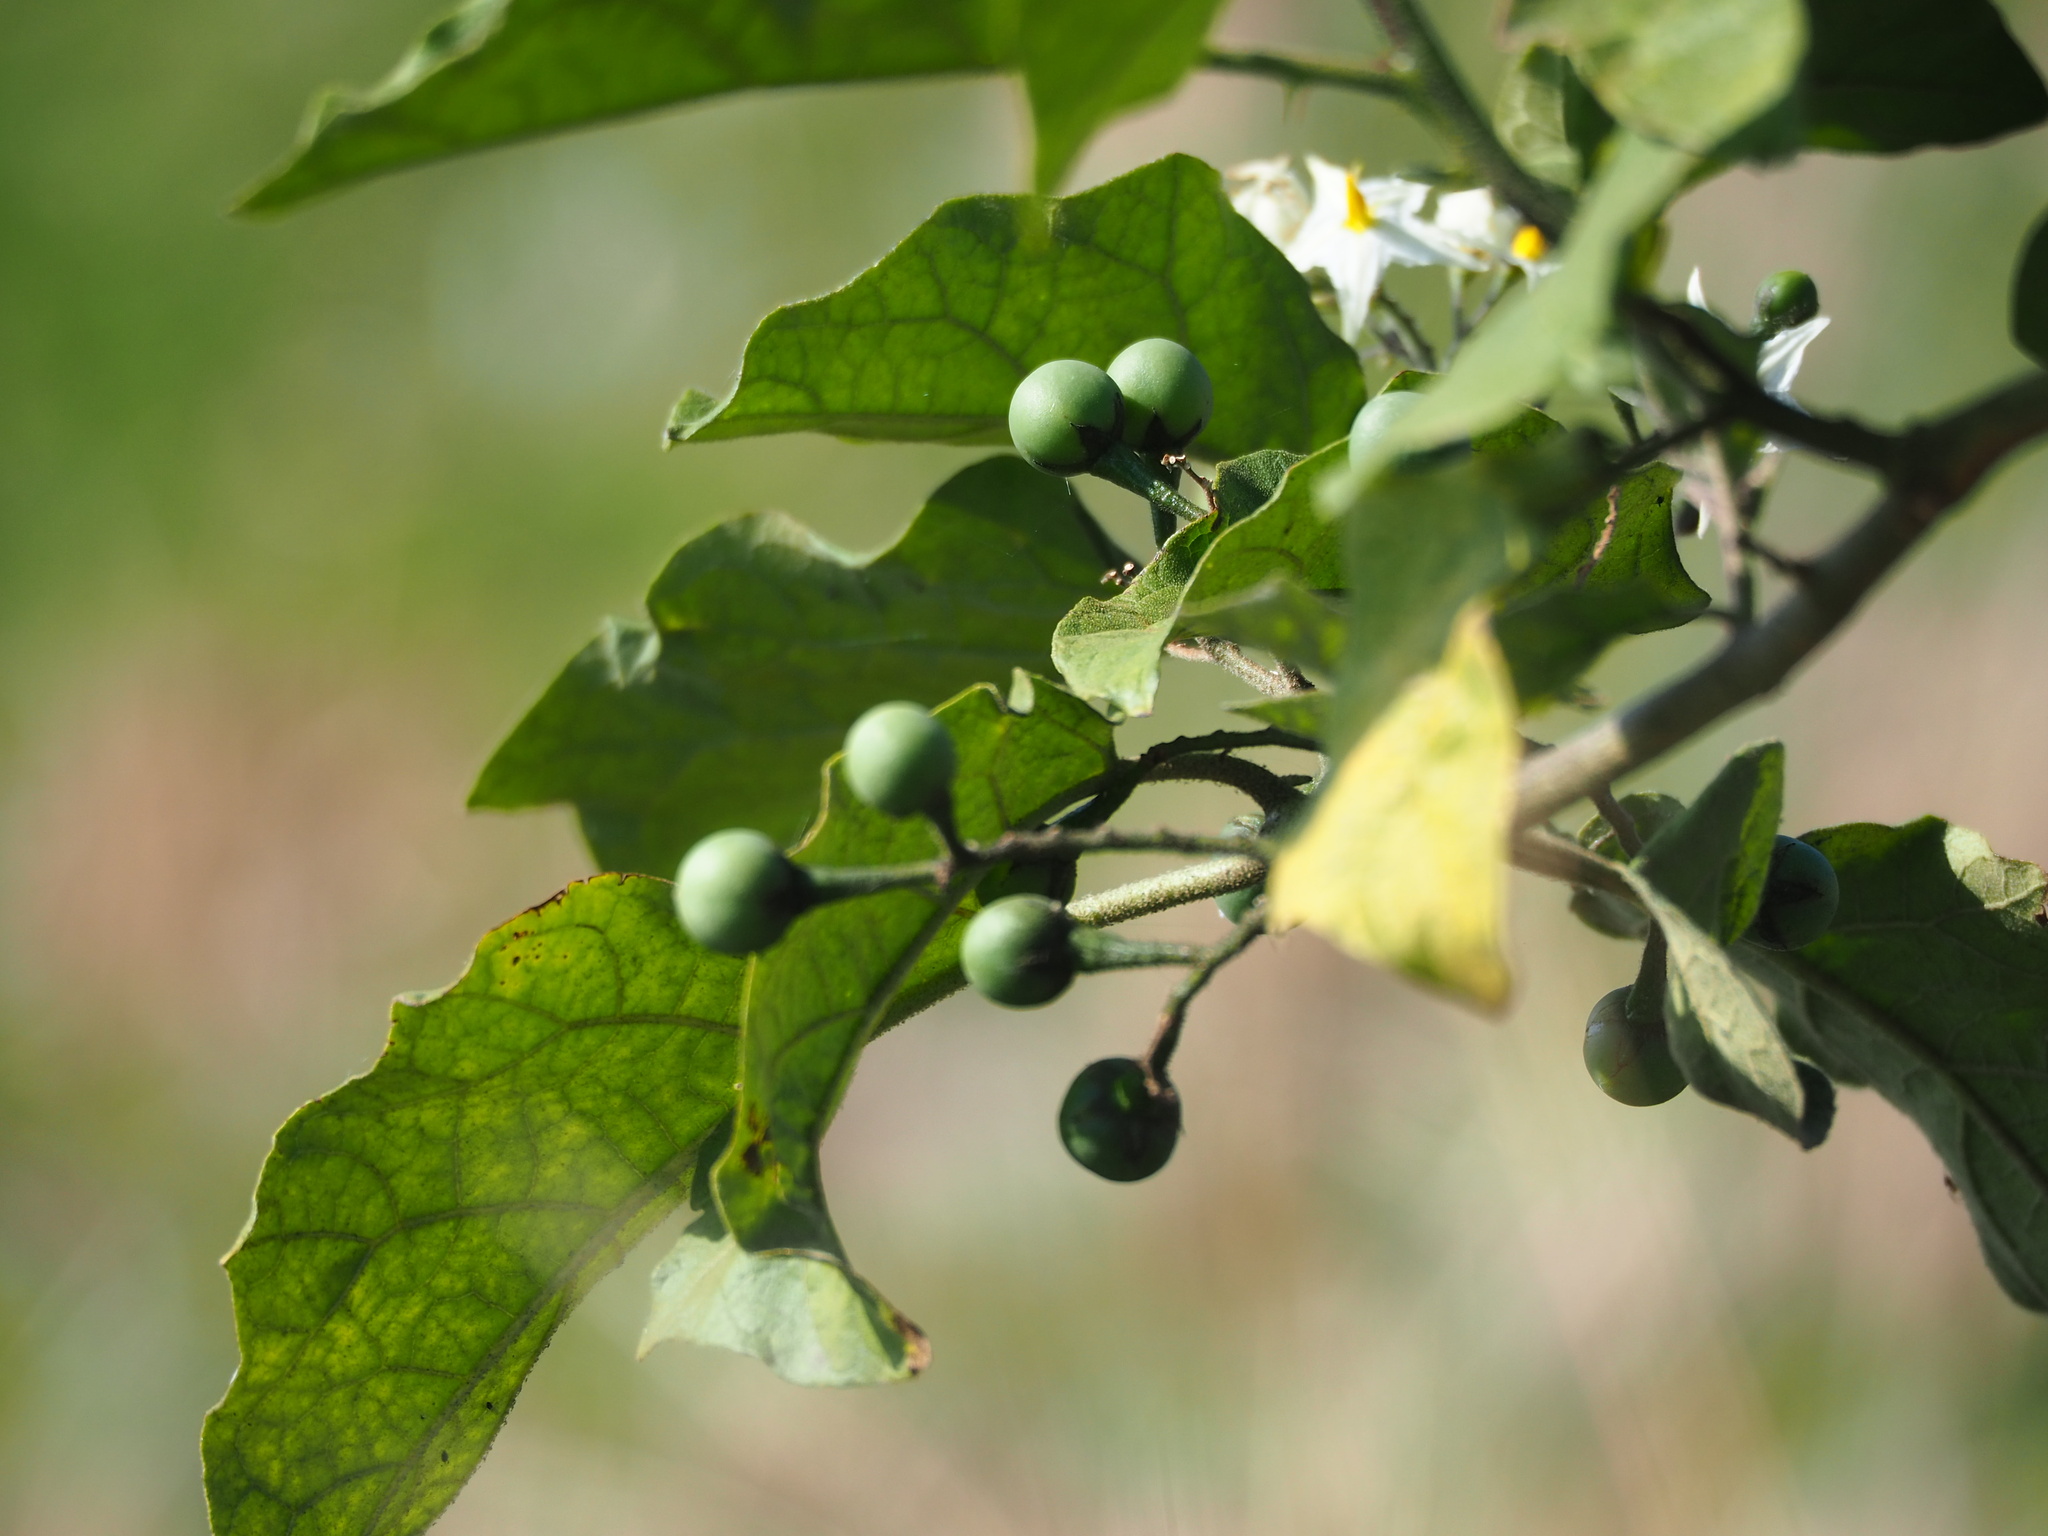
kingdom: Plantae
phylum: Tracheophyta
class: Magnoliopsida
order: Solanales
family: Solanaceae
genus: Solanum
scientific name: Solanum torvum
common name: Turkey berry
